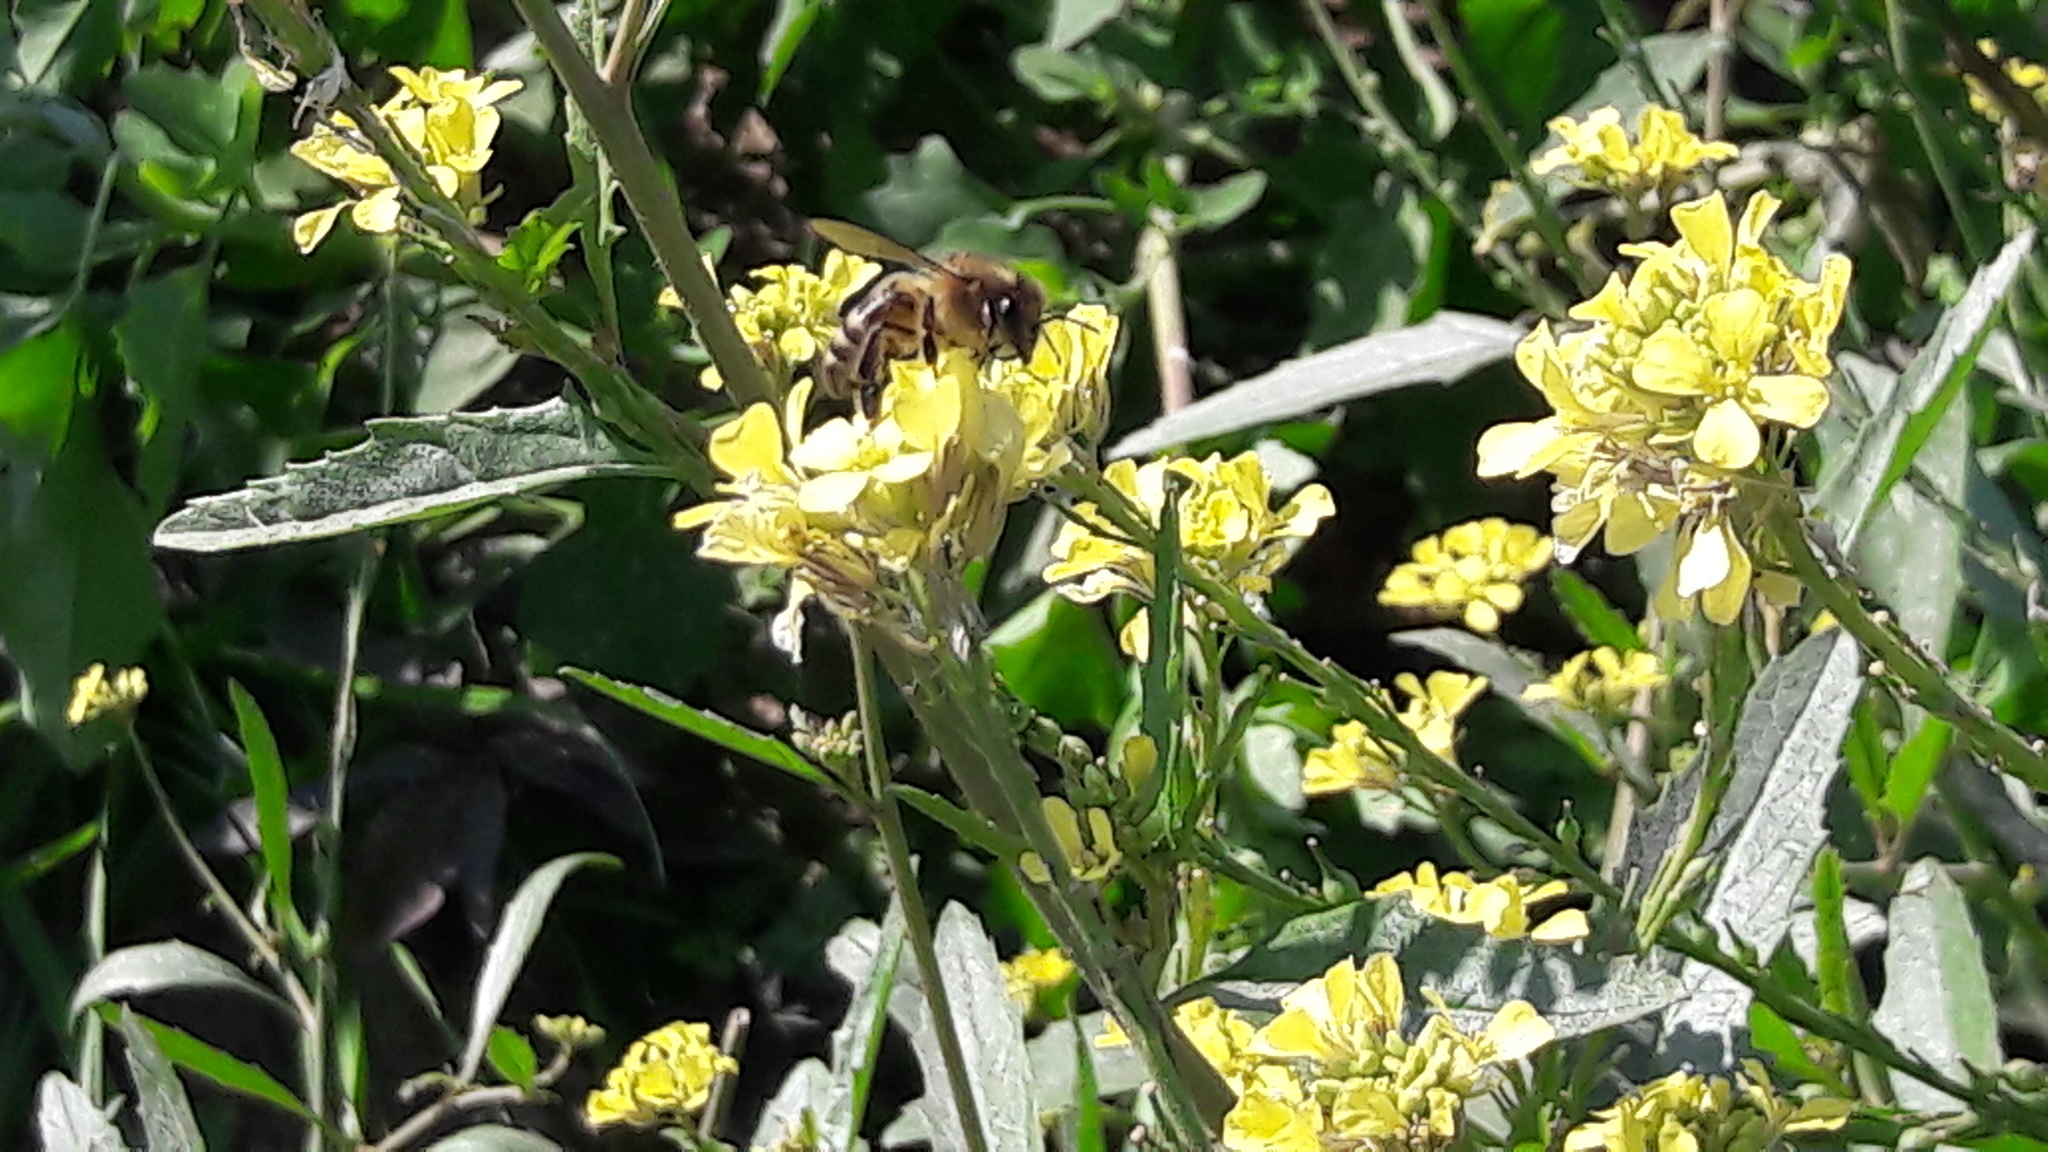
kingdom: Animalia
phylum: Arthropoda
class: Insecta
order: Hymenoptera
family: Apidae
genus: Apis
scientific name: Apis mellifera
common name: Honey bee
